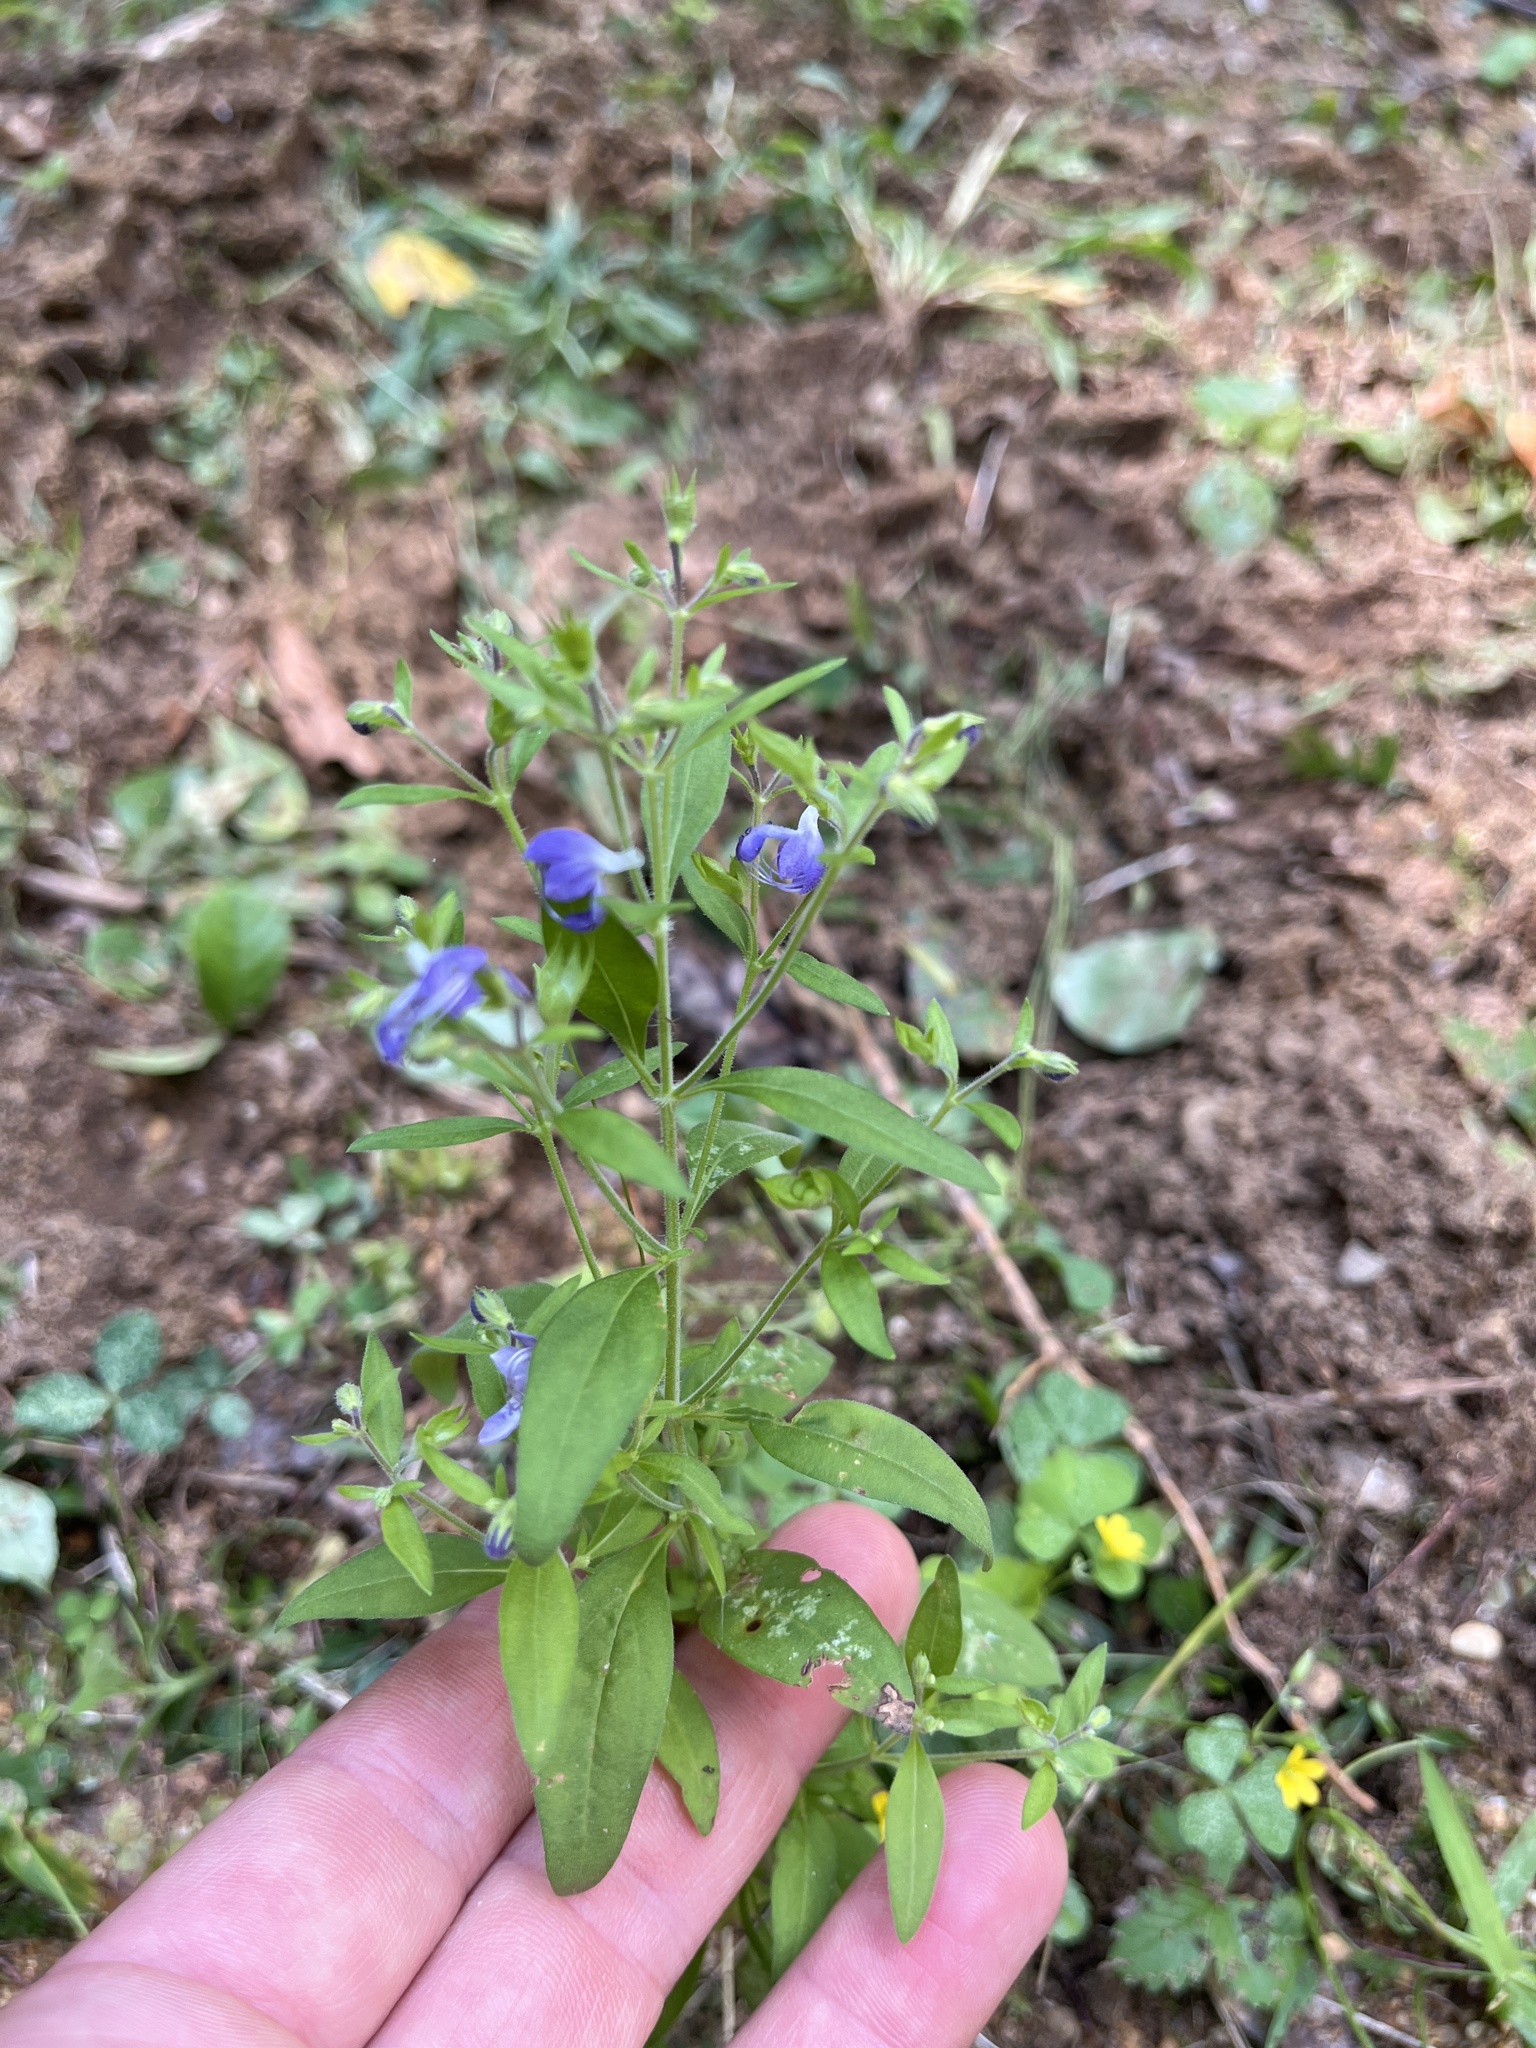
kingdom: Plantae
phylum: Tracheophyta
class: Magnoliopsida
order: Lamiales
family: Lamiaceae
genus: Trichostema
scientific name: Trichostema dichotomum
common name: Bastard pennyroyal
